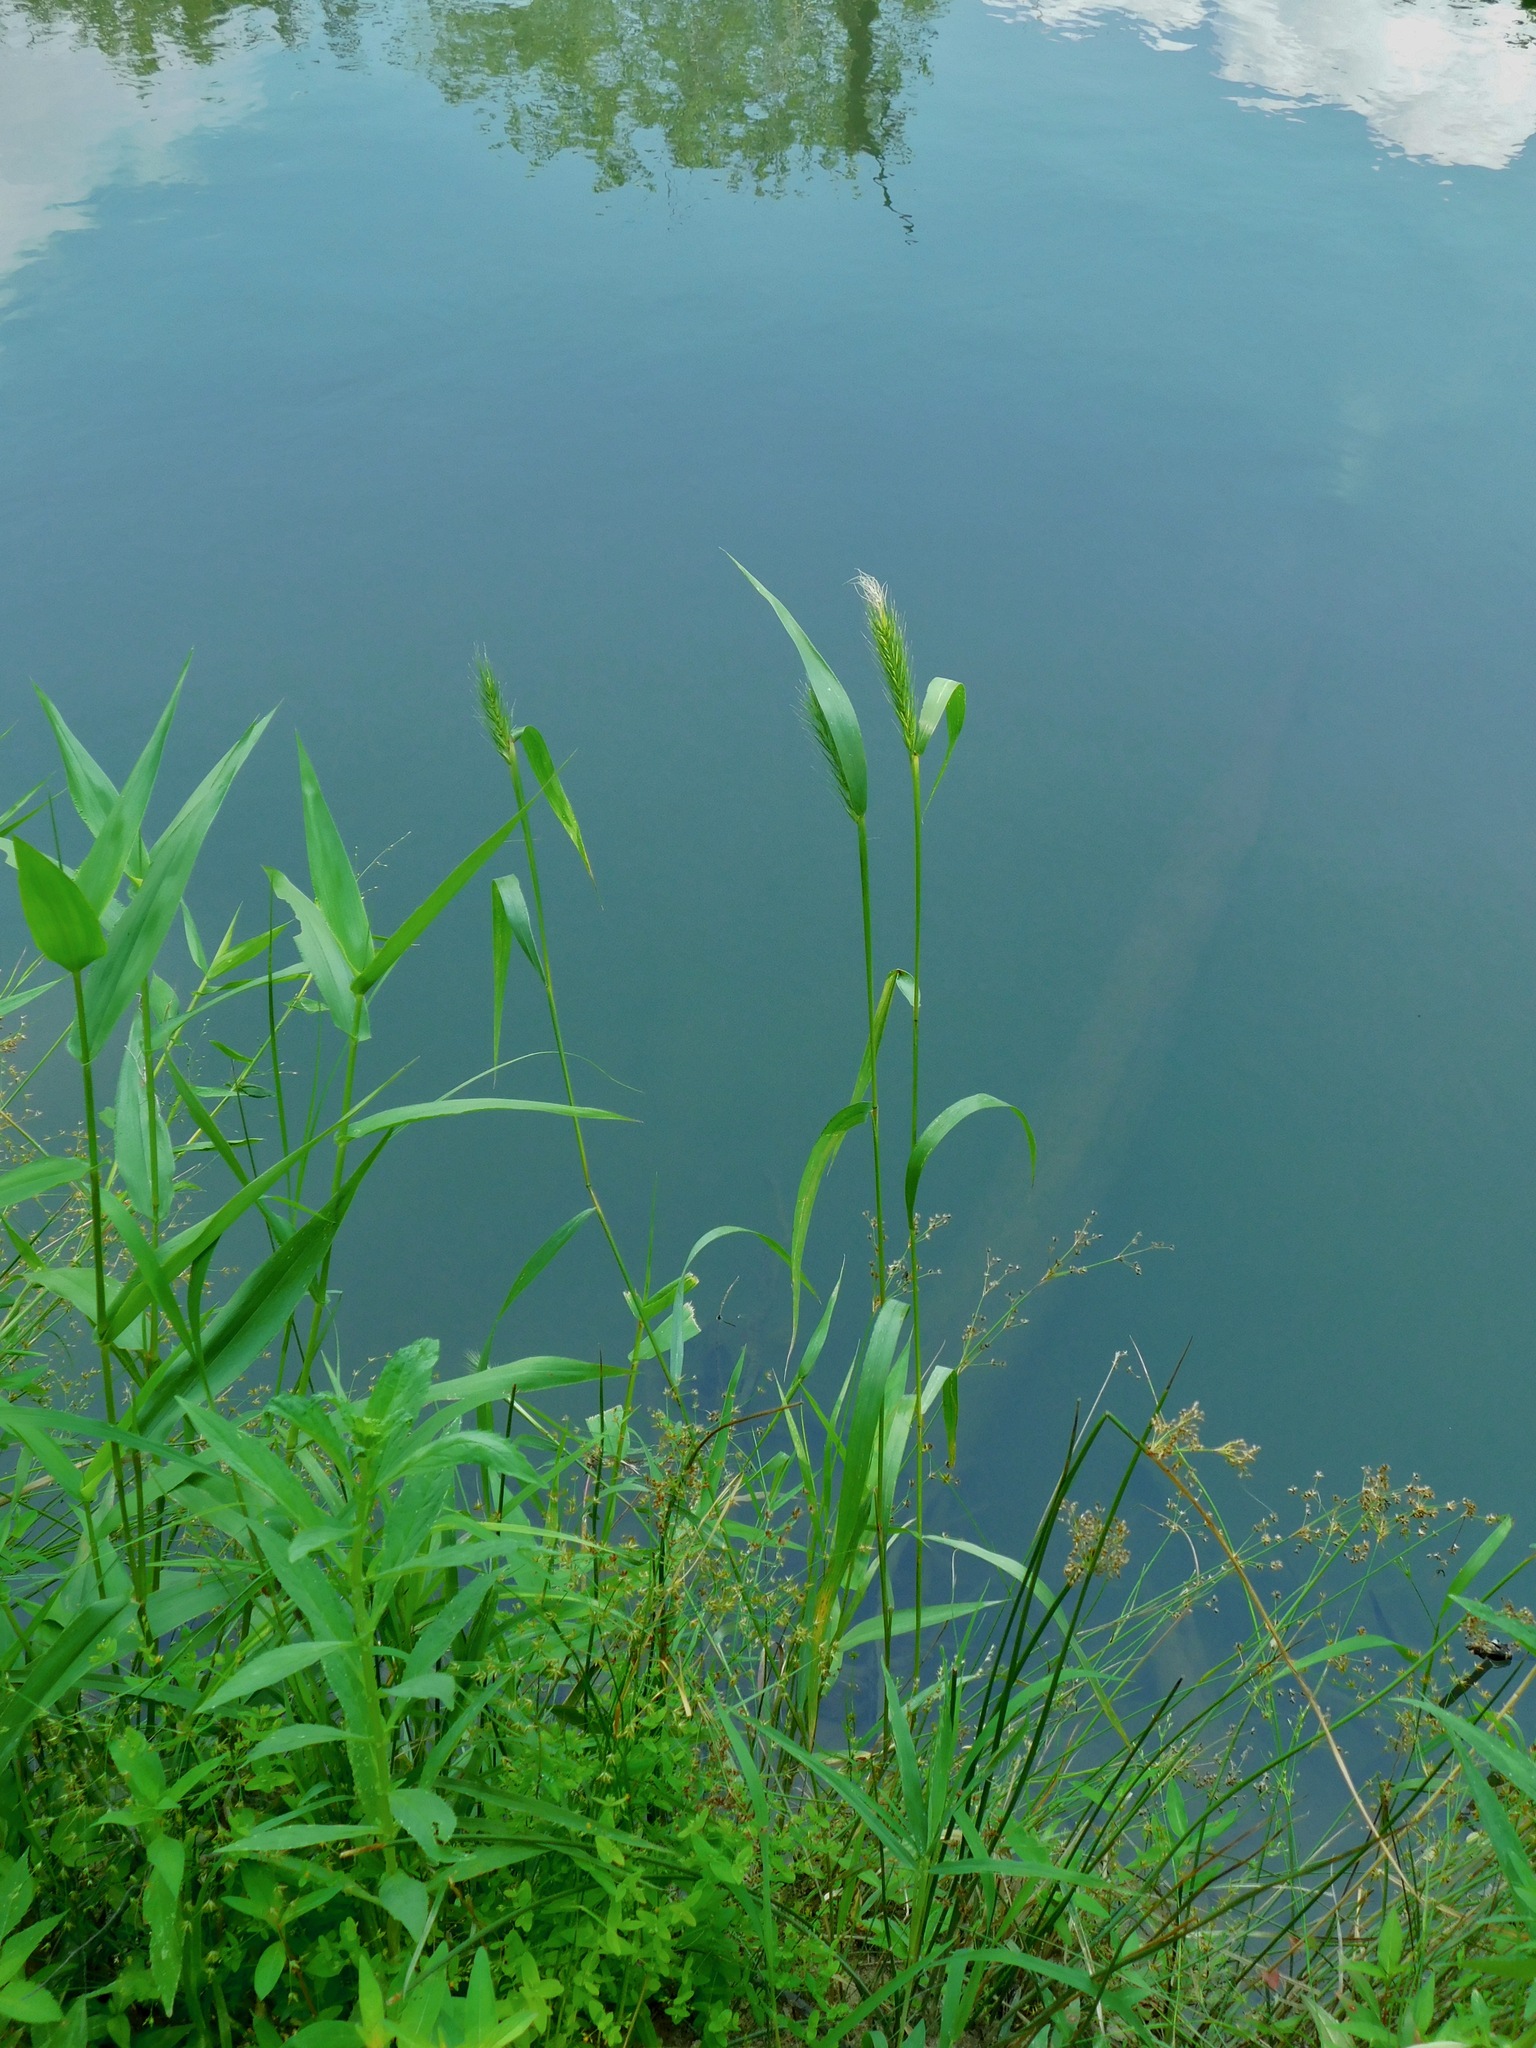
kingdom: Plantae
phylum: Tracheophyta
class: Liliopsida
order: Poales
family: Poaceae
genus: Elymus
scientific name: Elymus virginicus
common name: Common eastern wildrye
